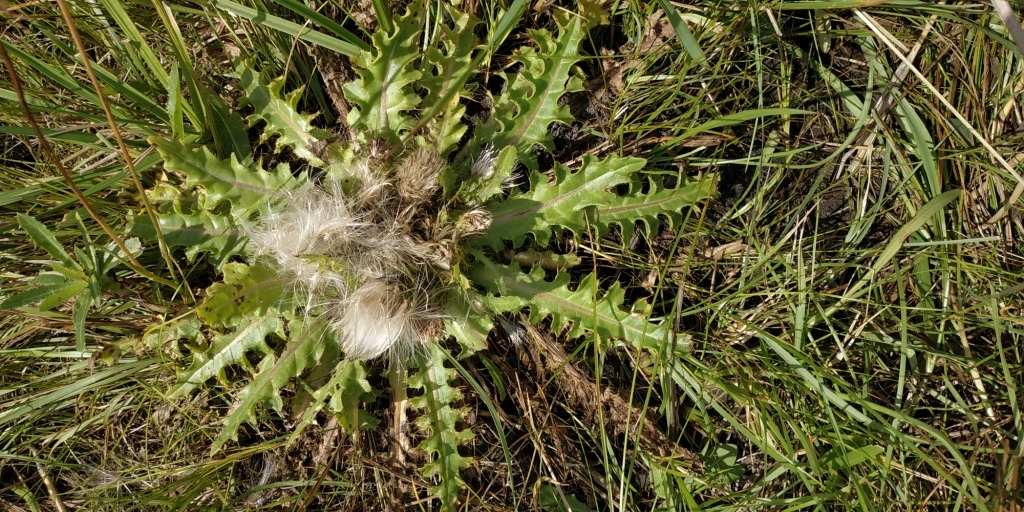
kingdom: Plantae
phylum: Tracheophyta
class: Magnoliopsida
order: Asterales
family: Asteraceae
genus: Cirsium
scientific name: Cirsium esculentum
